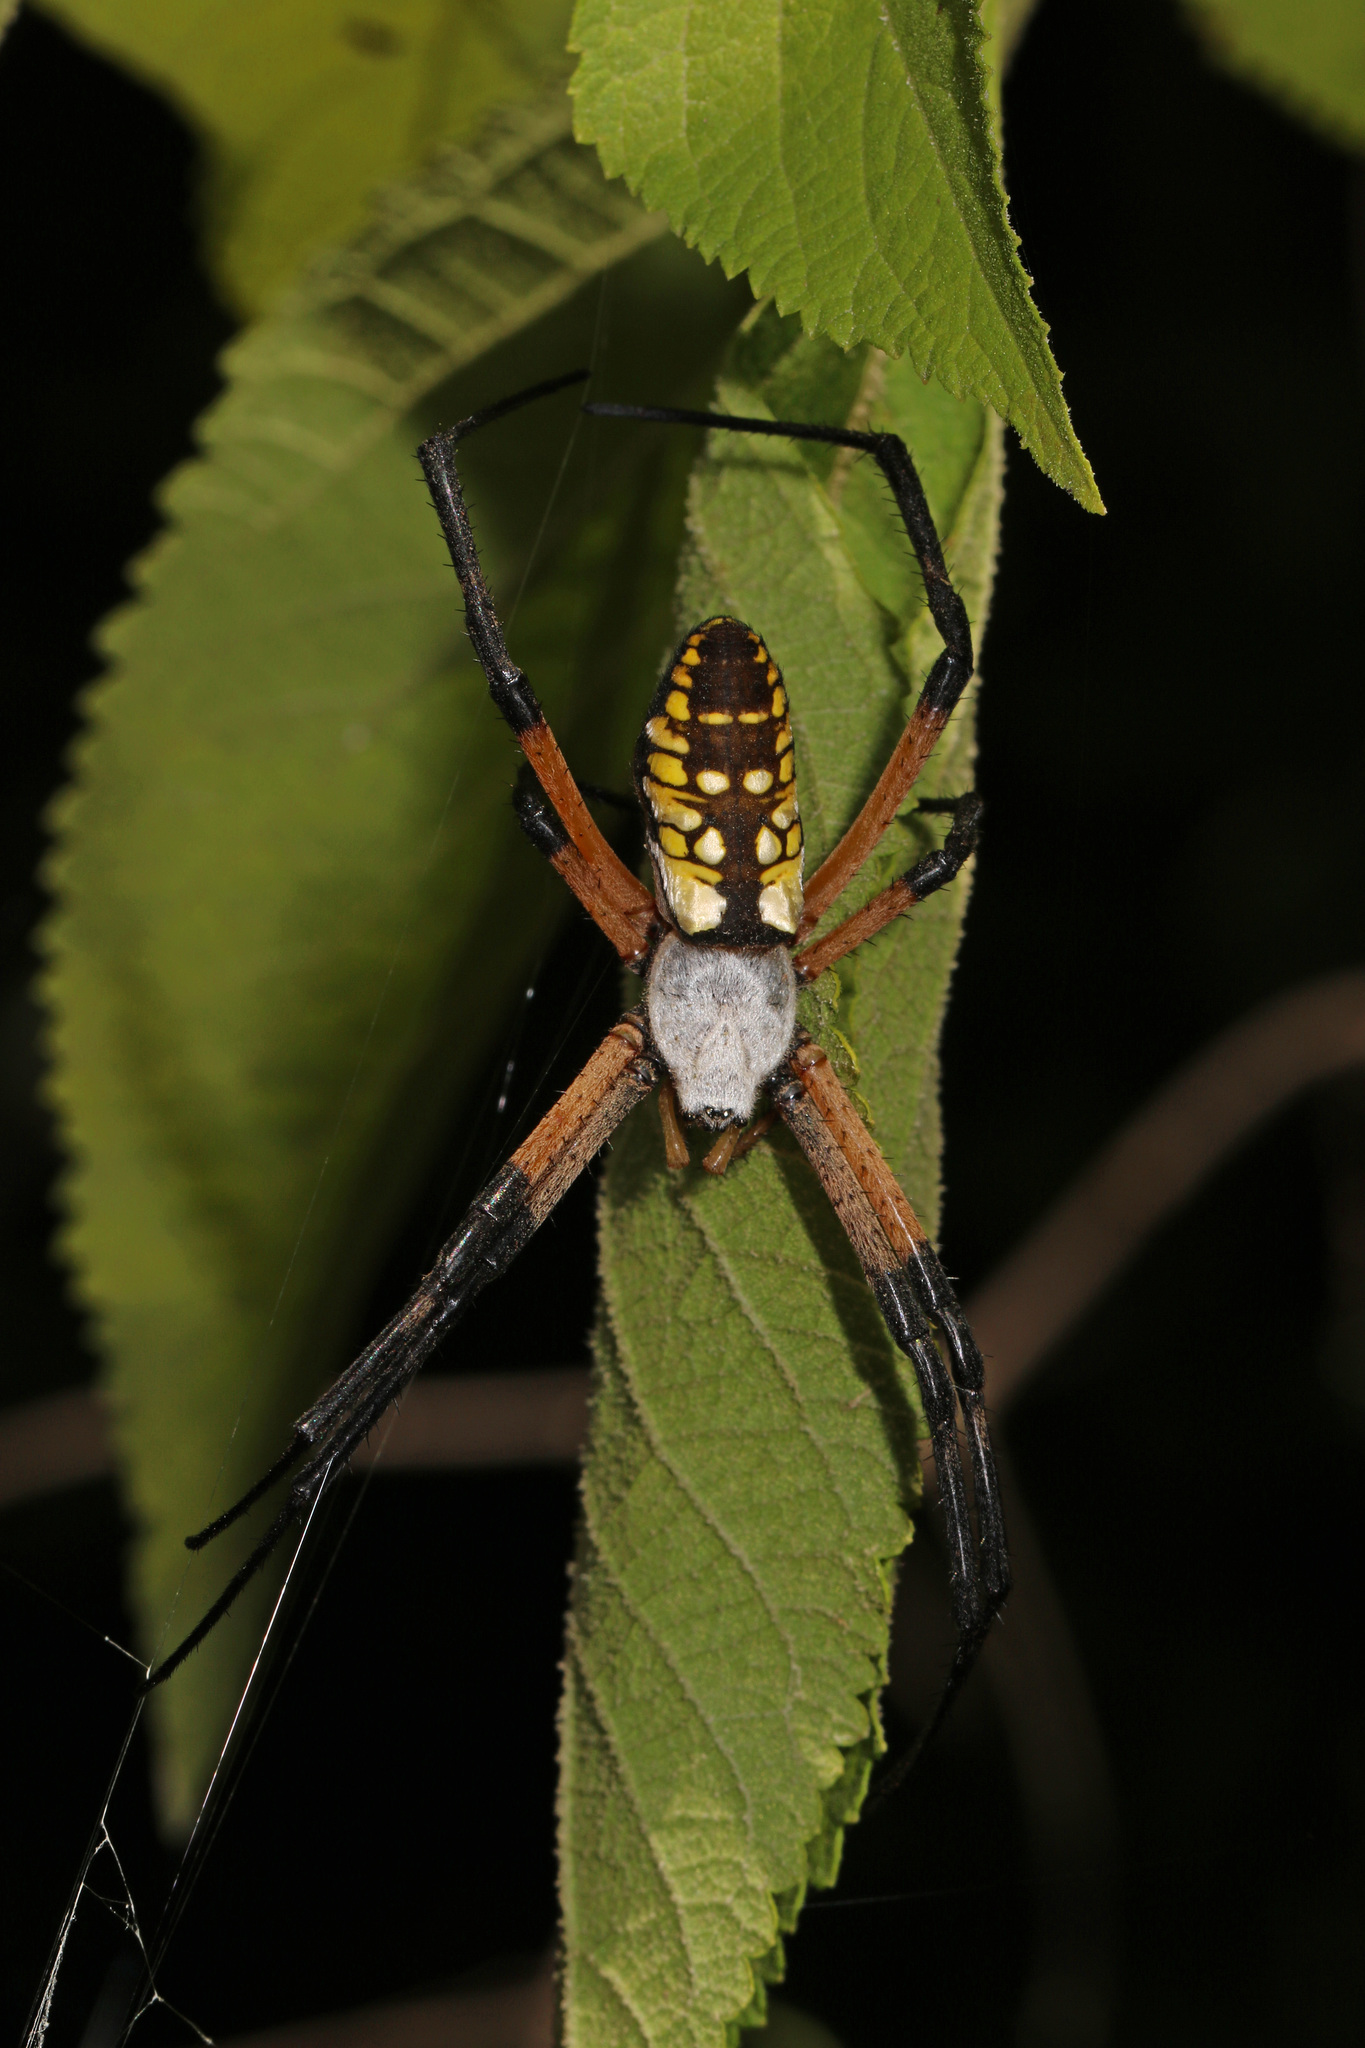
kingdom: Animalia
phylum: Arthropoda
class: Arachnida
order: Araneae
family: Araneidae
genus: Argiope
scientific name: Argiope aurantia
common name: Orb weavers
